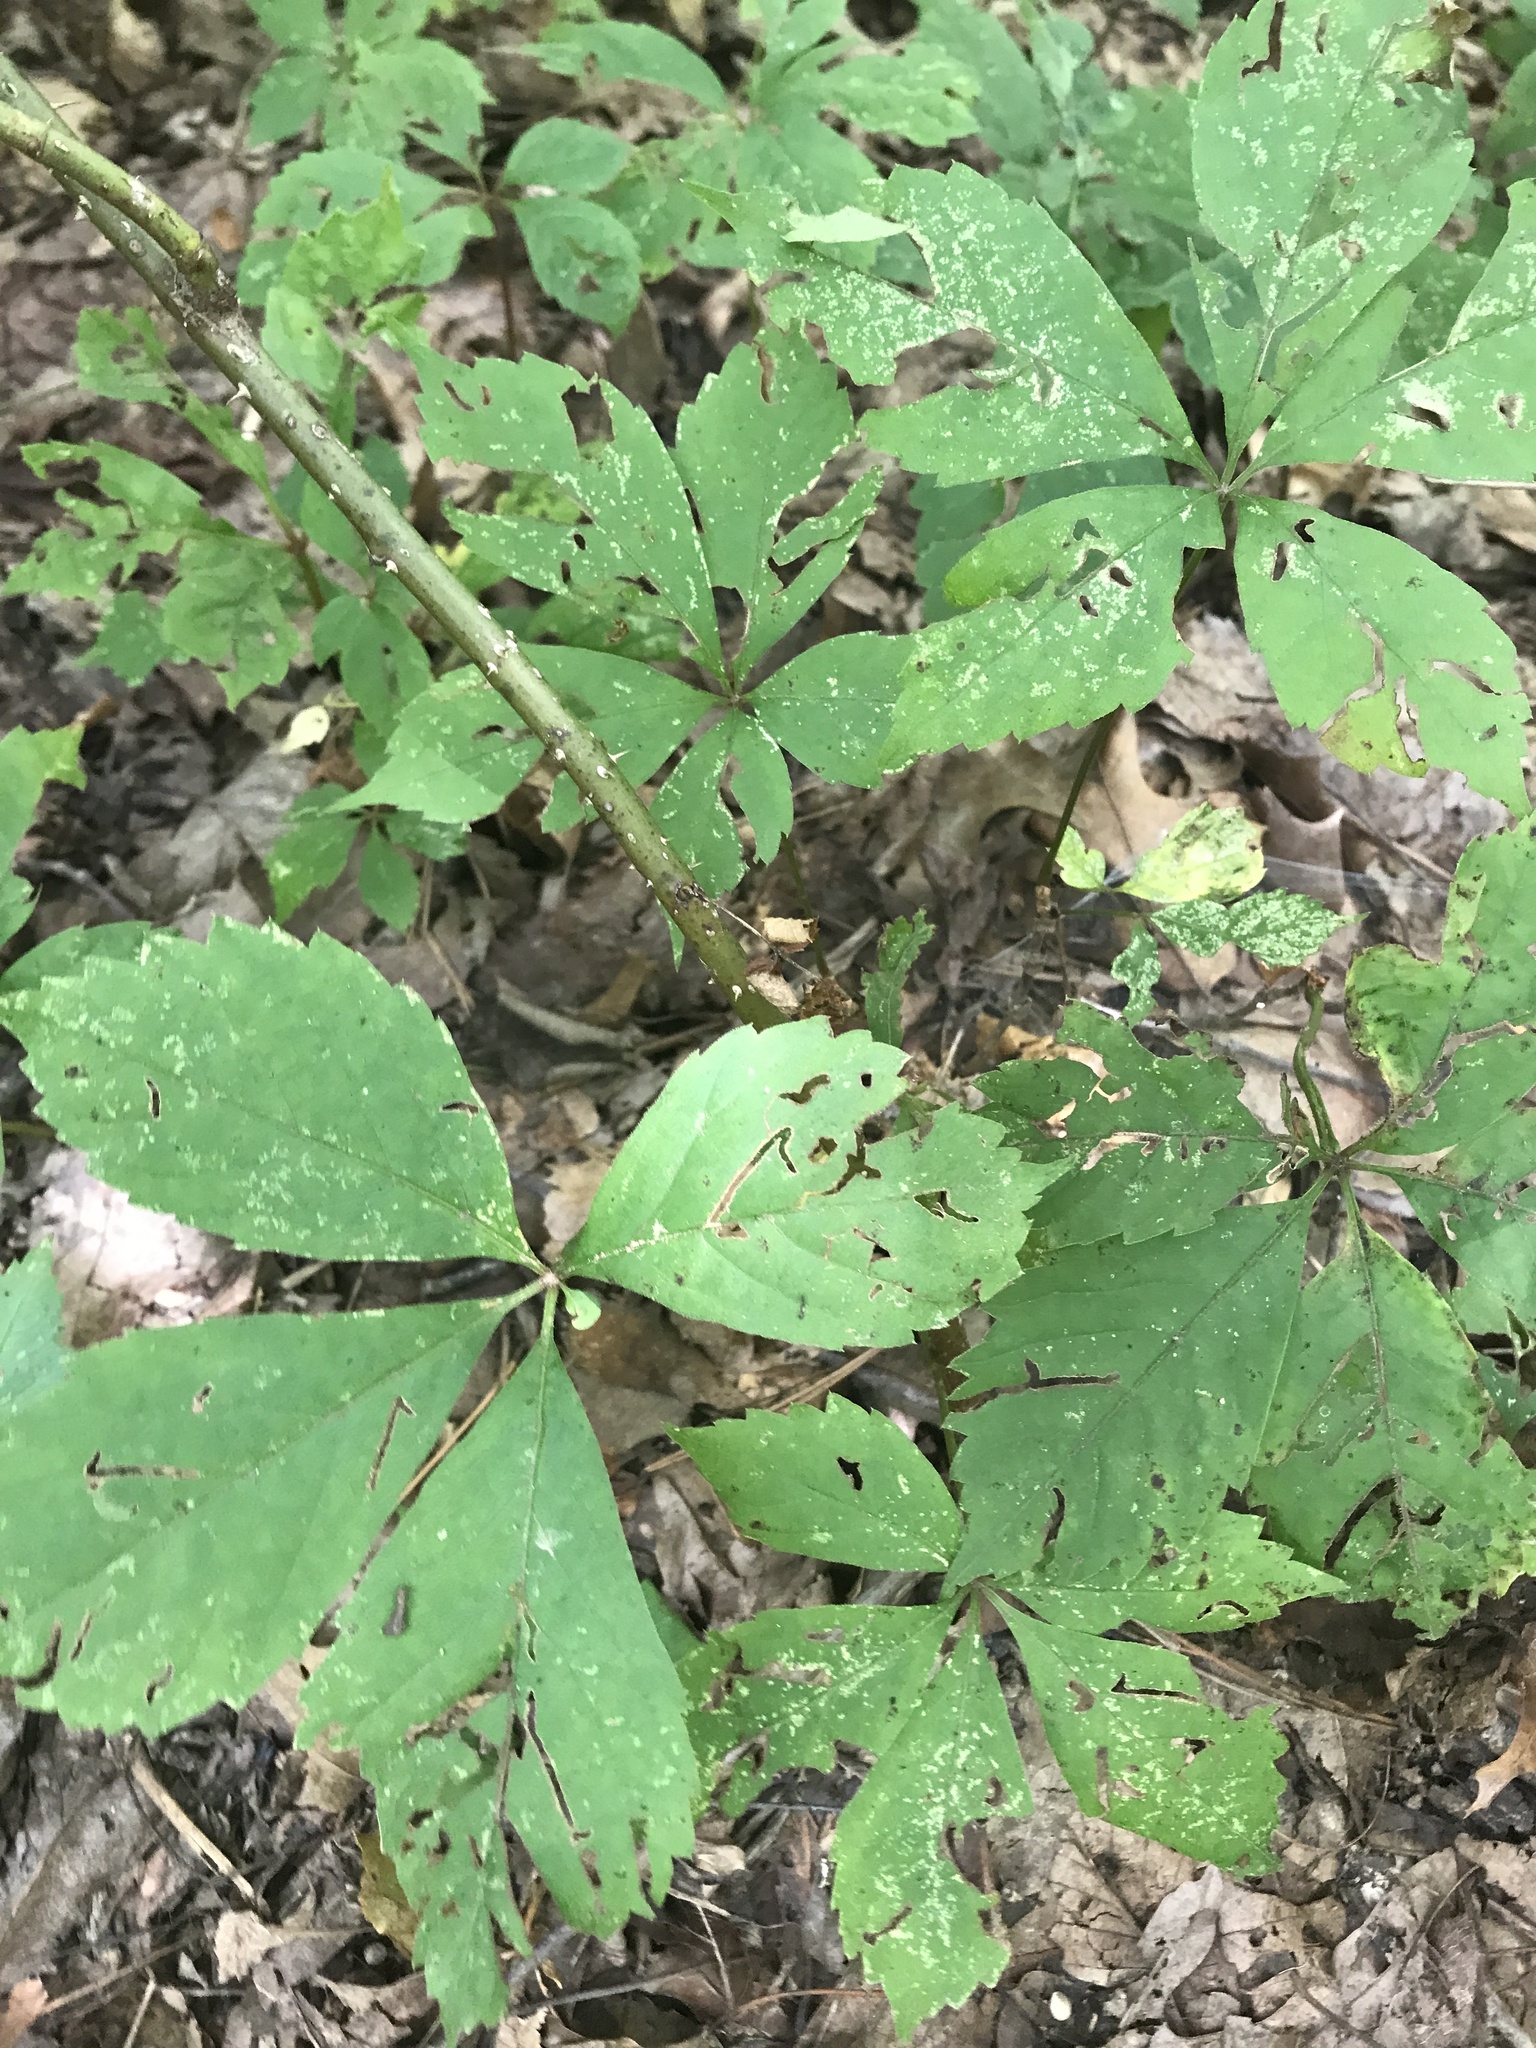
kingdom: Plantae
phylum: Tracheophyta
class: Magnoliopsida
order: Vitales
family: Vitaceae
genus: Parthenocissus
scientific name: Parthenocissus quinquefolia
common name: Virginia-creeper
